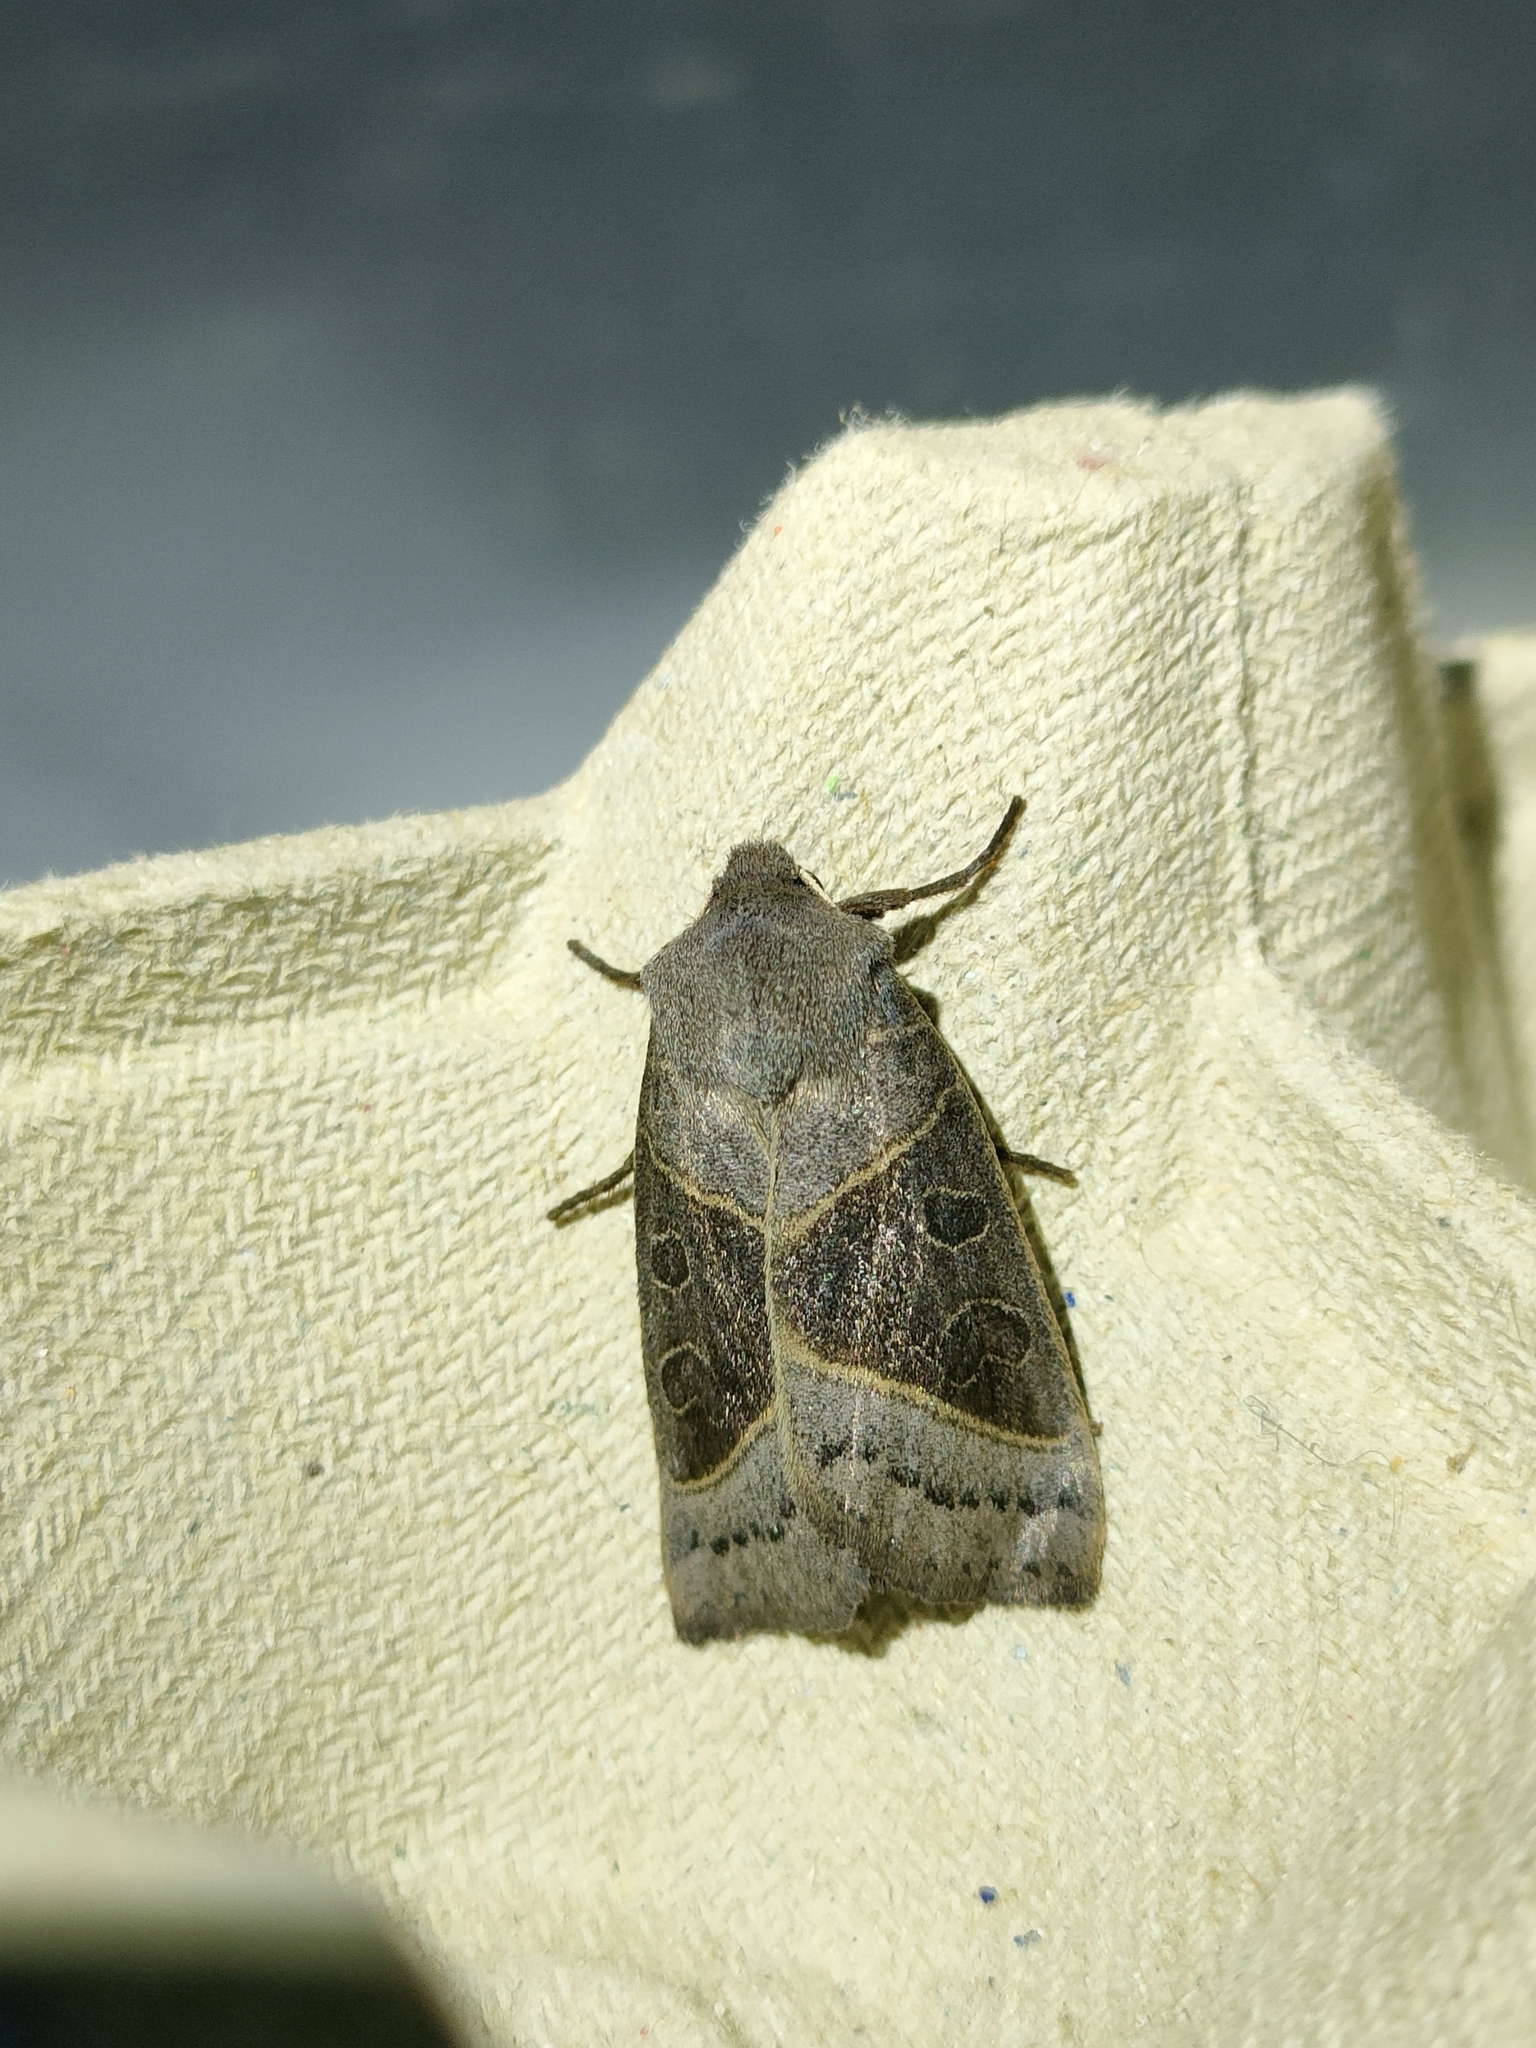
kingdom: Animalia
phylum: Arthropoda
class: Insecta
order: Lepidoptera
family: Noctuidae
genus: Mesogona
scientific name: Mesogona oxalina
